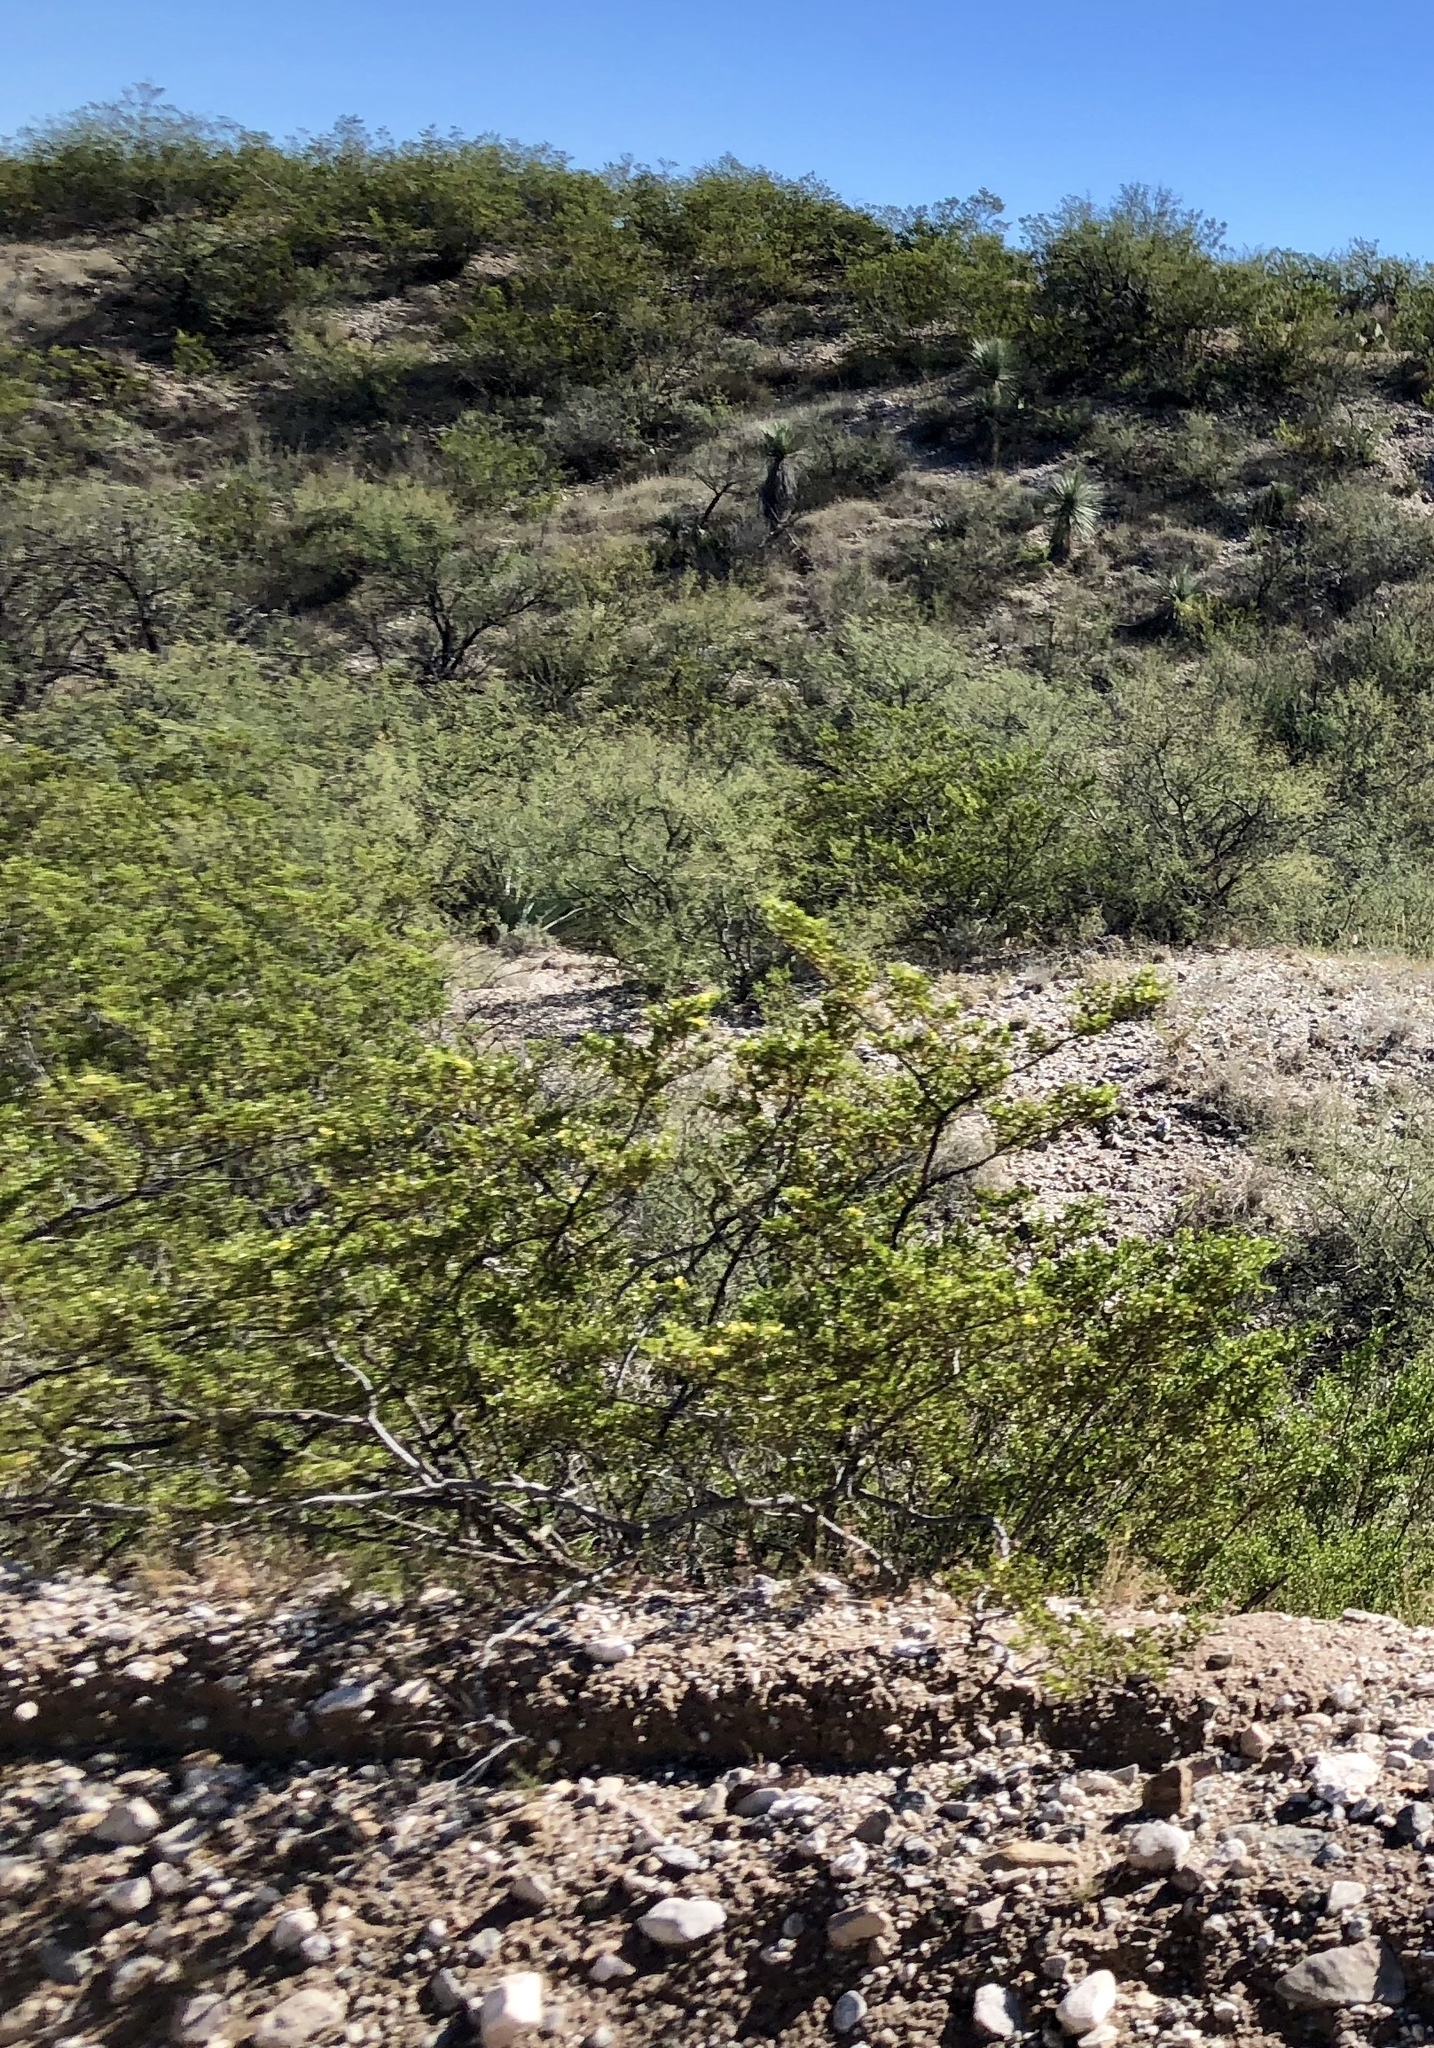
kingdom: Plantae
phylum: Tracheophyta
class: Magnoliopsida
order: Zygophyllales
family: Zygophyllaceae
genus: Larrea
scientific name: Larrea tridentata
